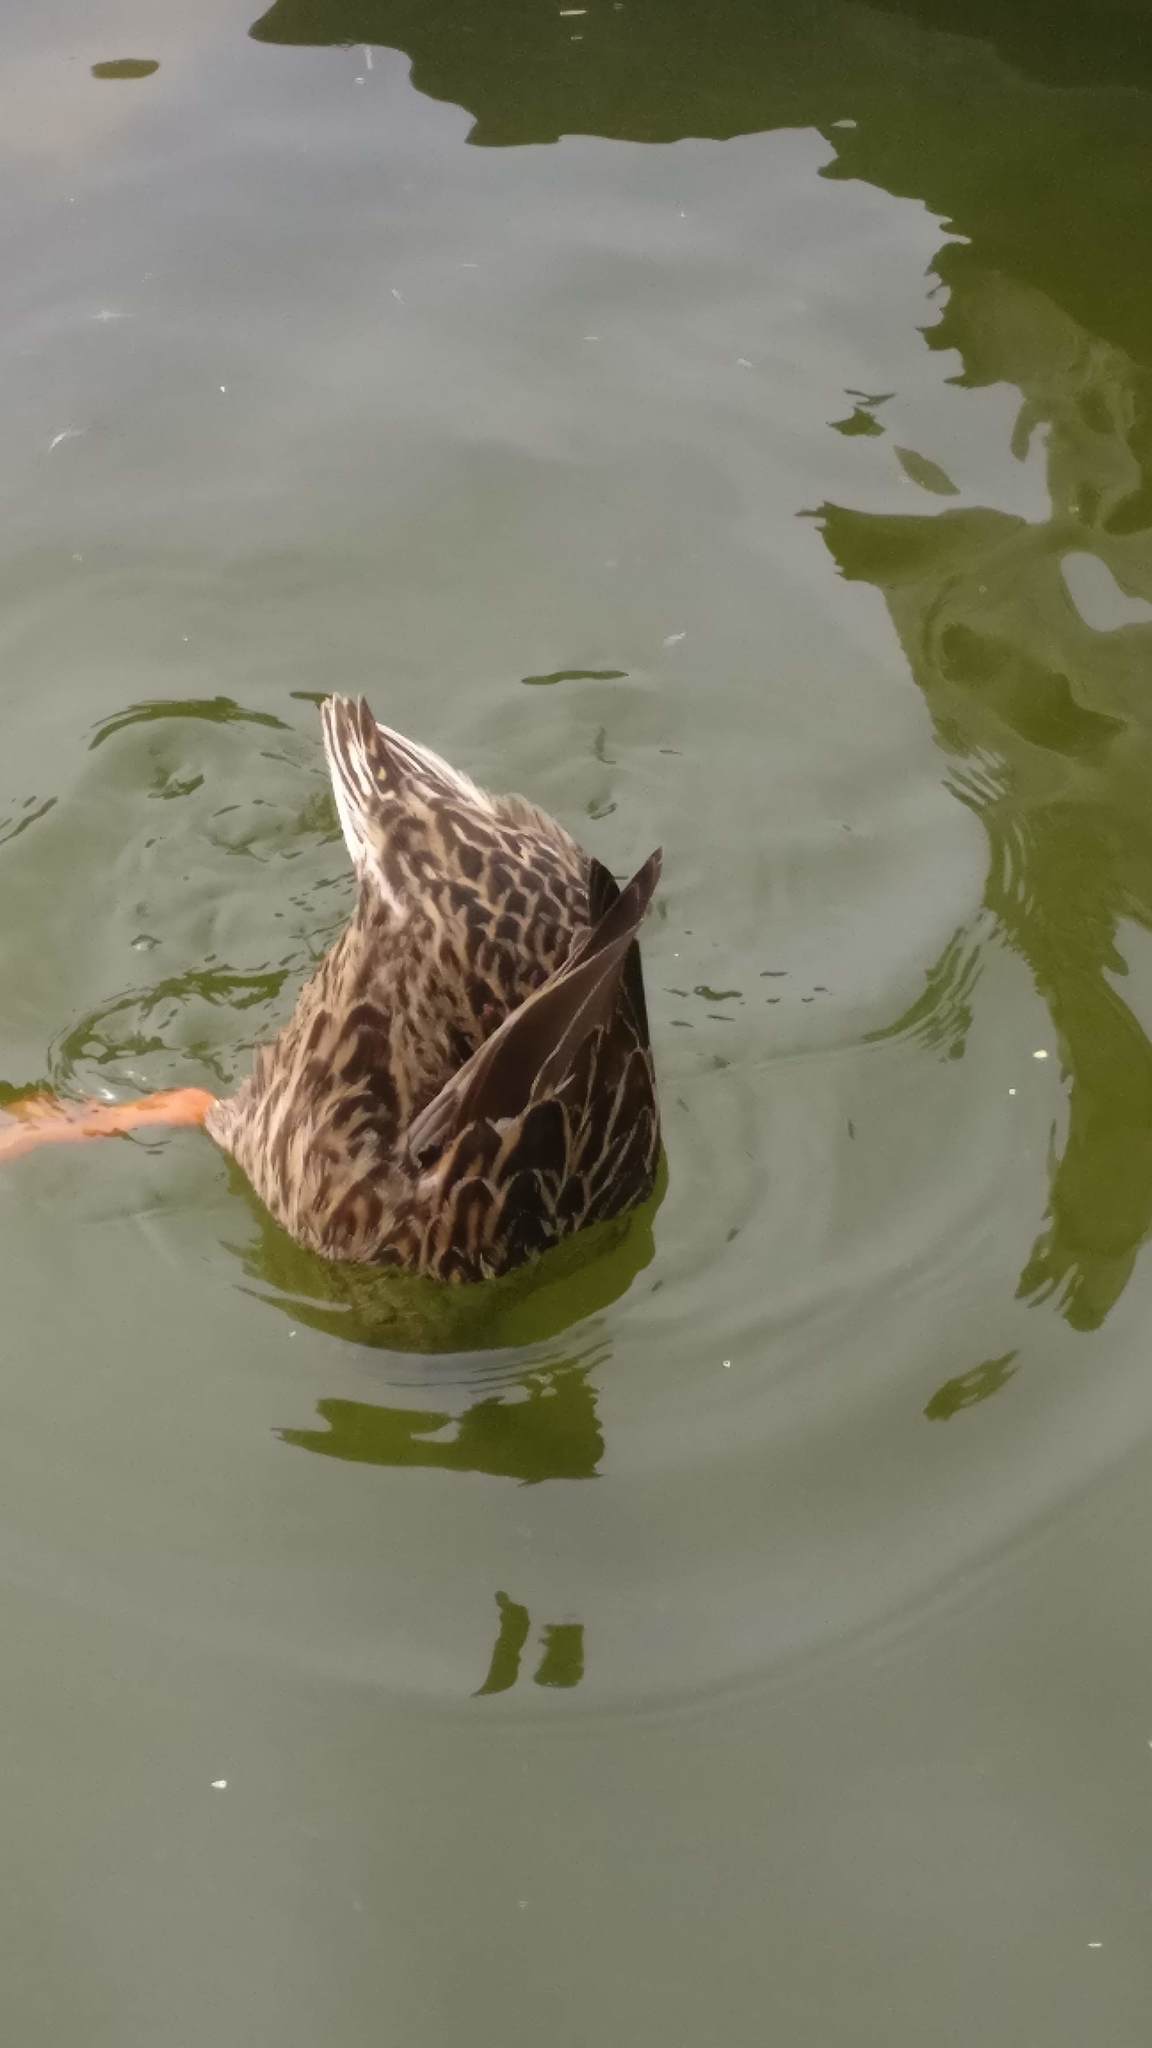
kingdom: Animalia
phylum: Chordata
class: Aves
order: Anseriformes
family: Anatidae
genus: Anas
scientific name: Anas platyrhynchos
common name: Mallard
